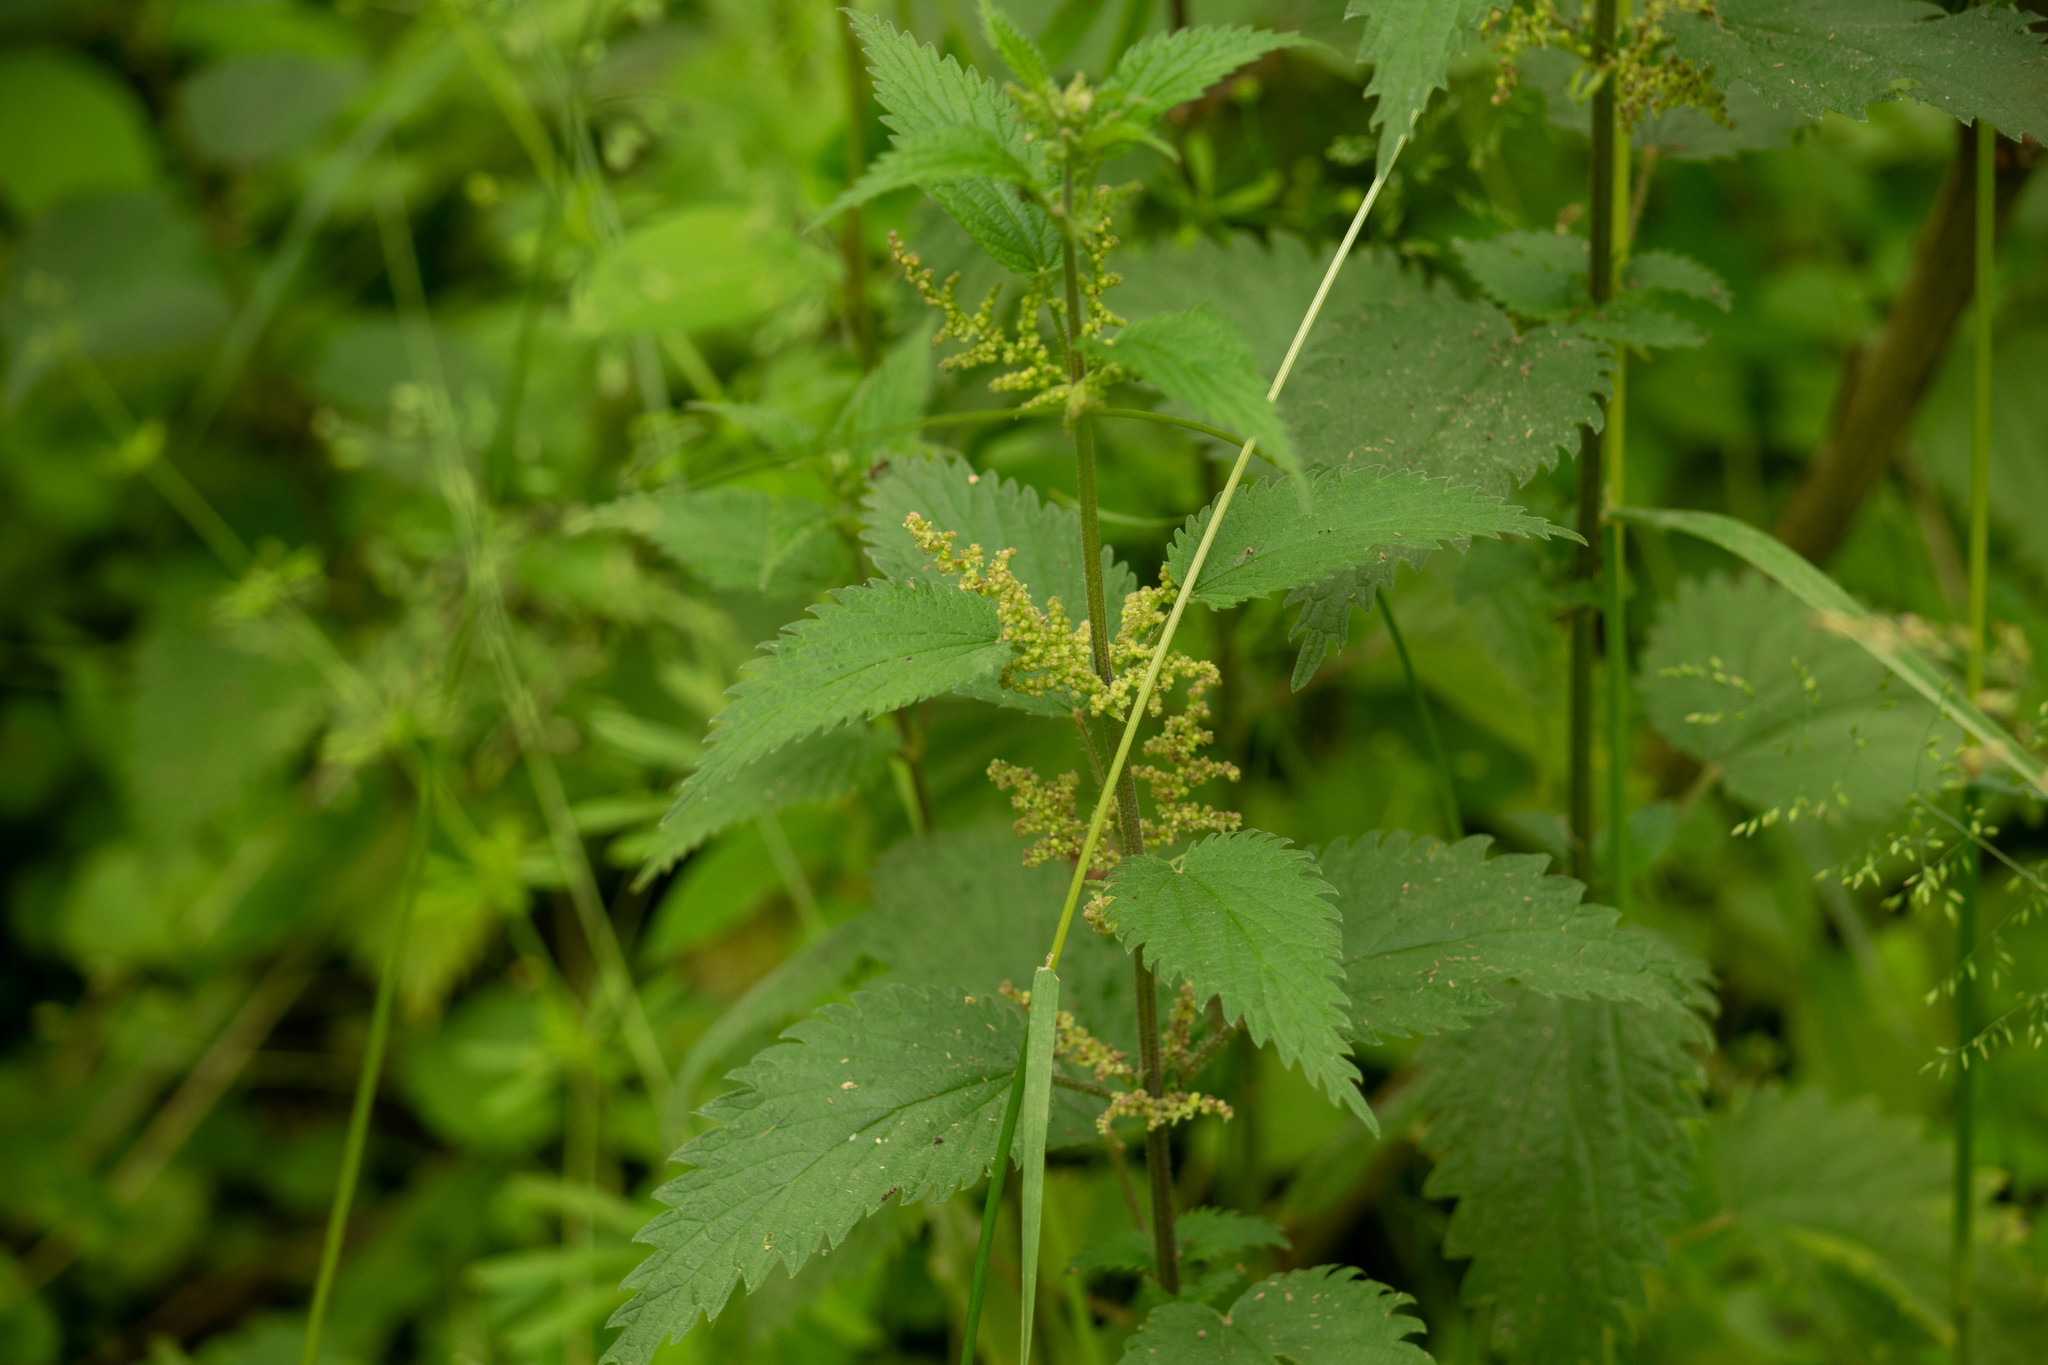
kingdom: Plantae
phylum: Tracheophyta
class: Magnoliopsida
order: Rosales
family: Urticaceae
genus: Urtica
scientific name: Urtica dioica
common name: Common nettle
